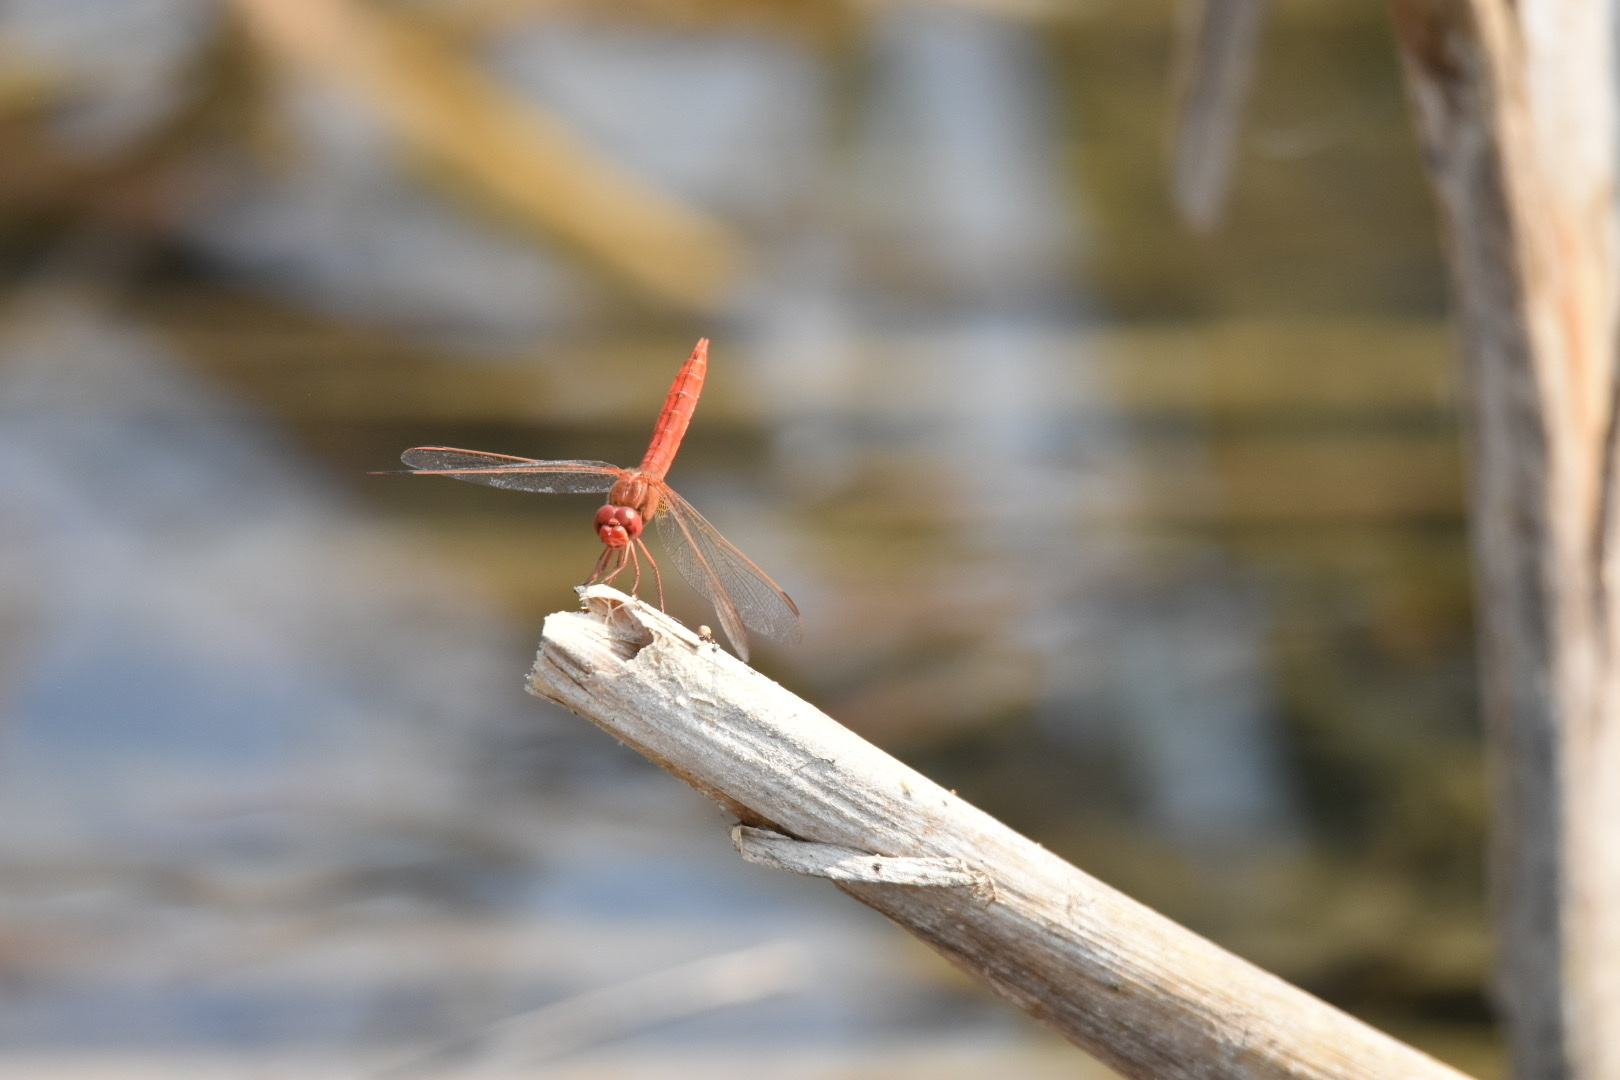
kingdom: Animalia
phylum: Arthropoda
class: Insecta
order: Odonata
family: Libellulidae
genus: Crocothemis
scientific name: Crocothemis erythraea
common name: Scarlet dragonfly
